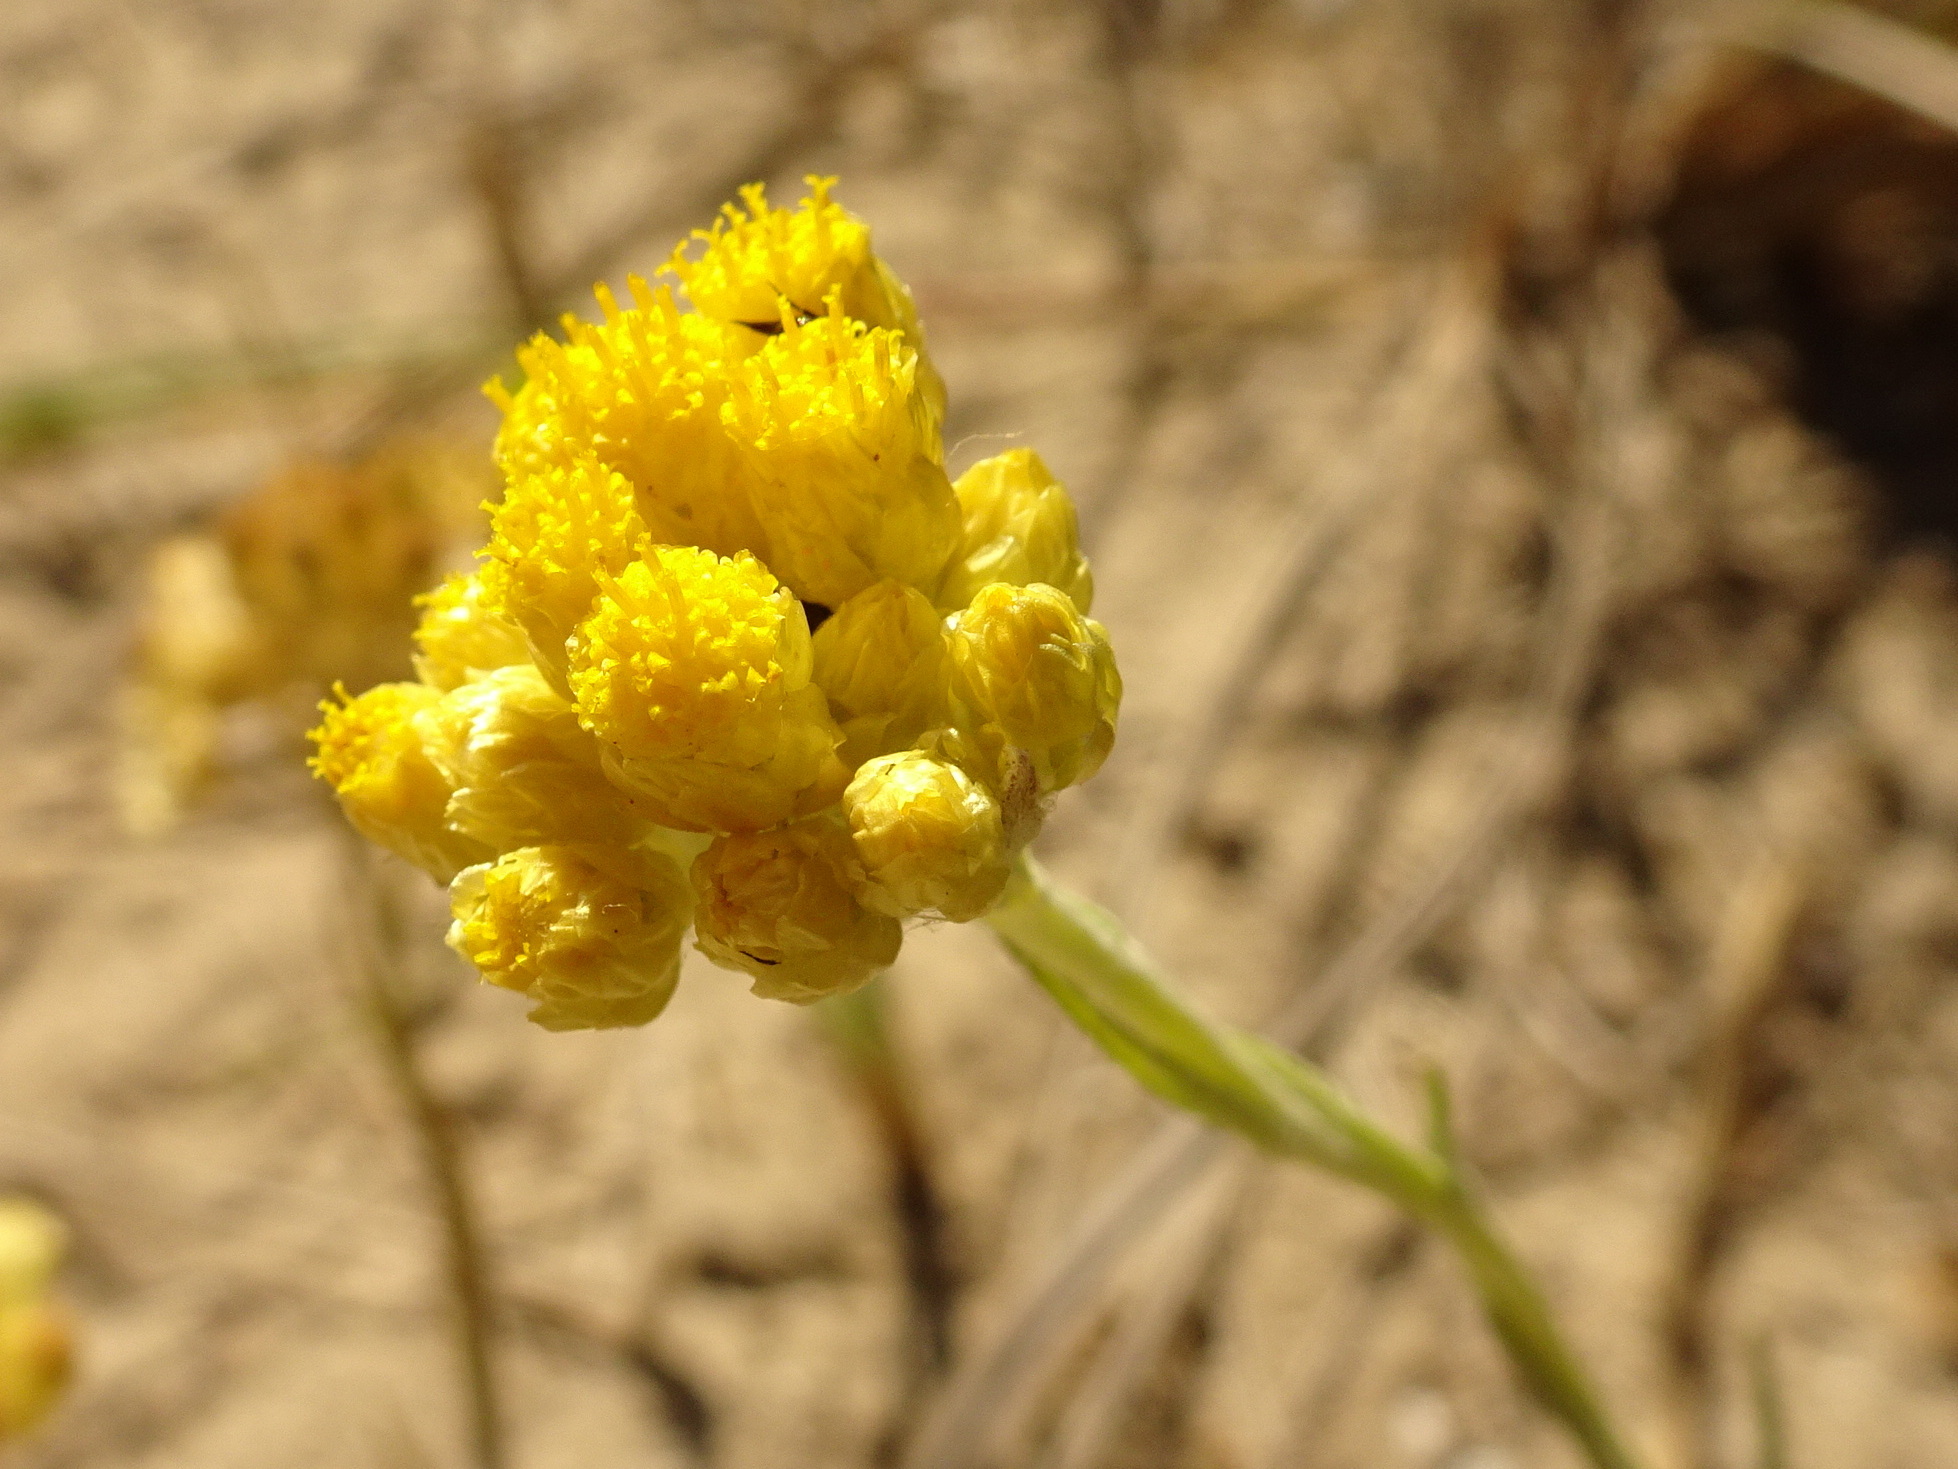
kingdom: Plantae
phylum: Tracheophyta
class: Magnoliopsida
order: Asterales
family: Asteraceae
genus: Helichrysum
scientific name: Helichrysum stoechas
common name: Goldilocks
